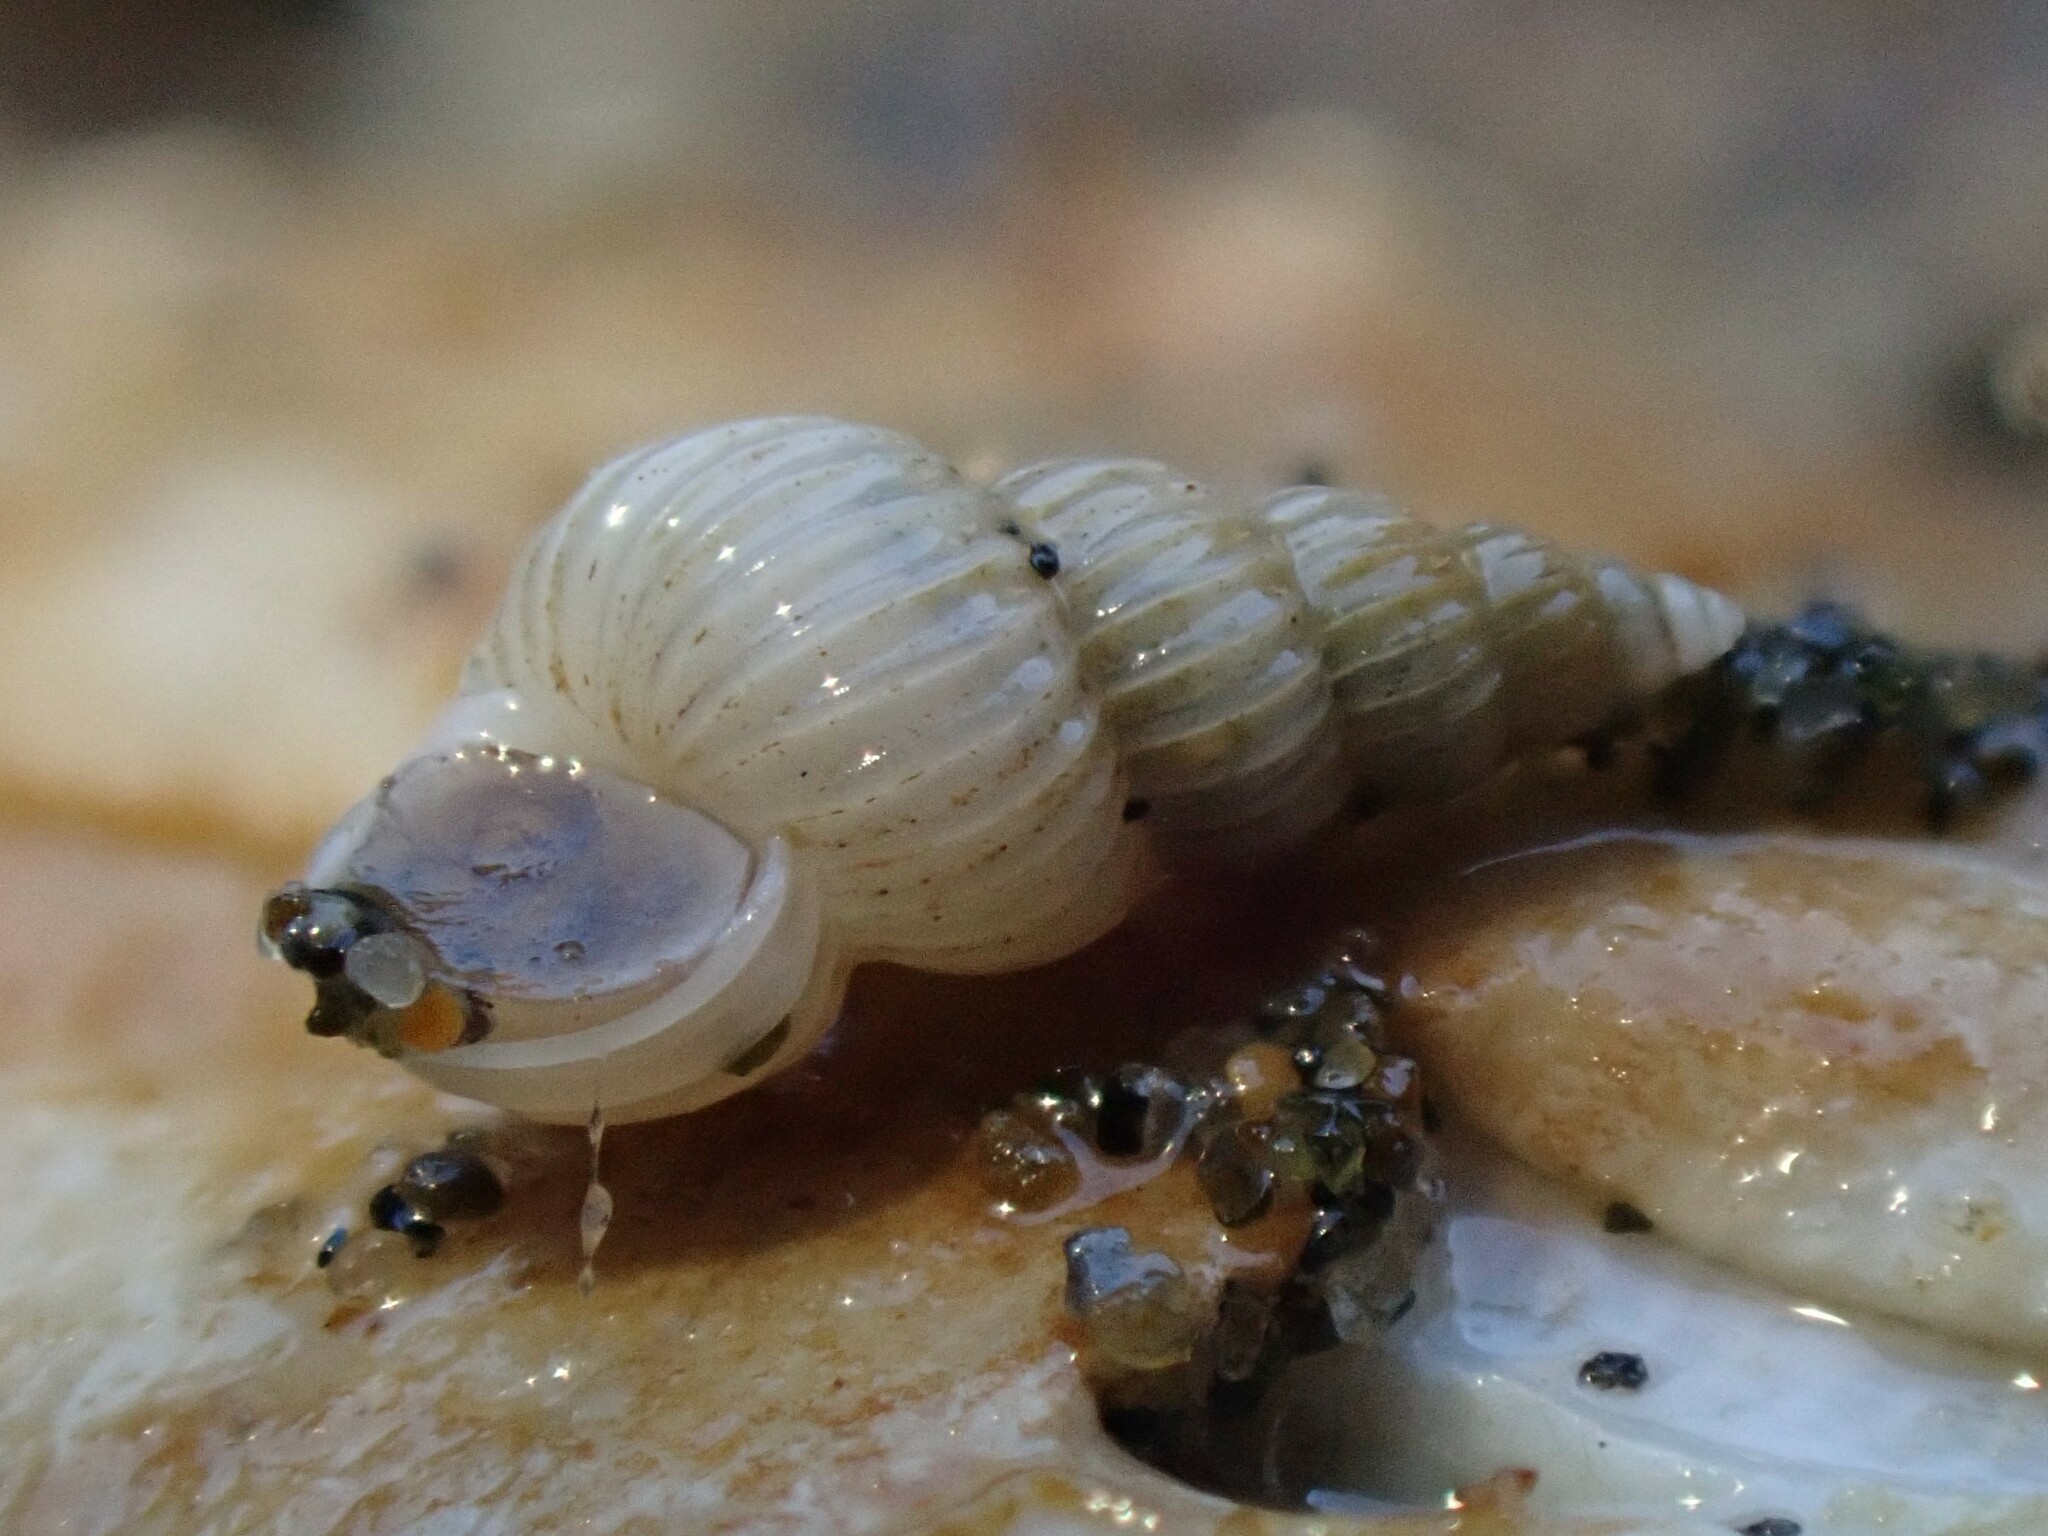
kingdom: Animalia
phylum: Mollusca
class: Gastropoda
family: Epitoniidae
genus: Epitonium
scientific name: Epitonium jukesianum
